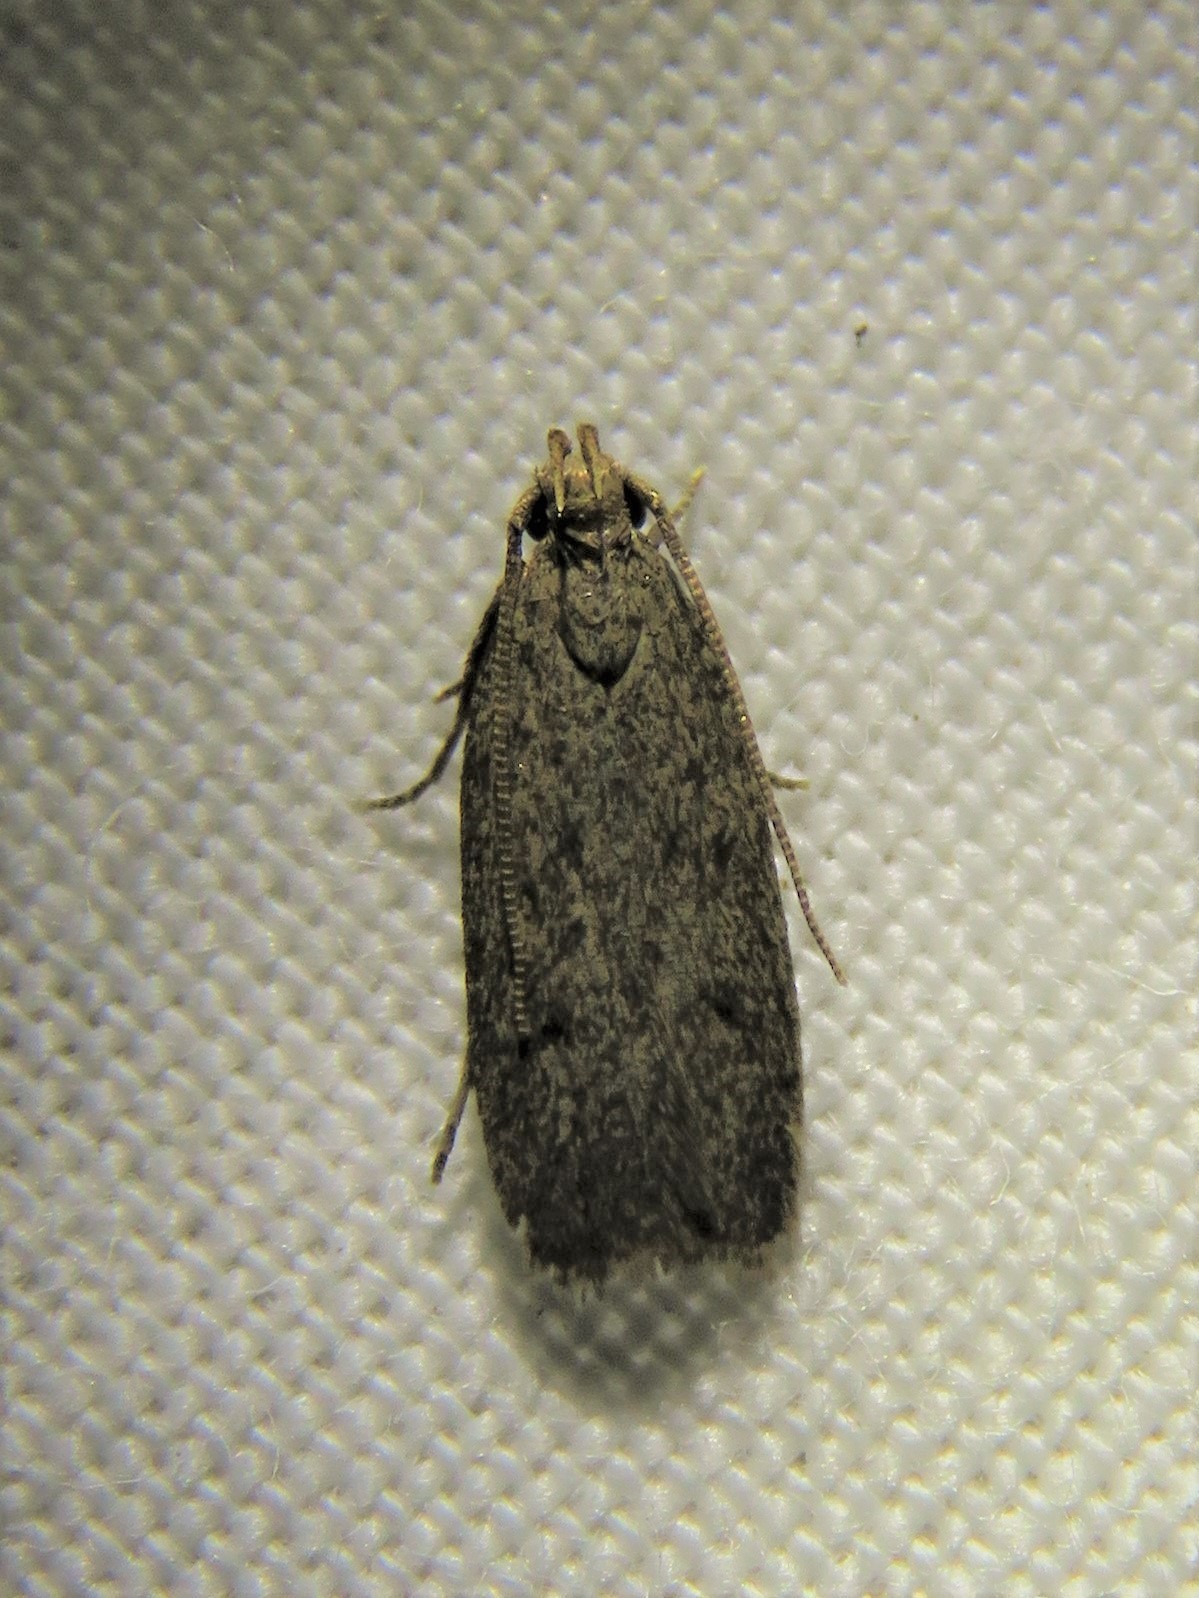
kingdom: Animalia
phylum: Arthropoda
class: Insecta
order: Lepidoptera
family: Autostichidae
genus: Glyphidocera
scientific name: Glyphidocera juniperella
